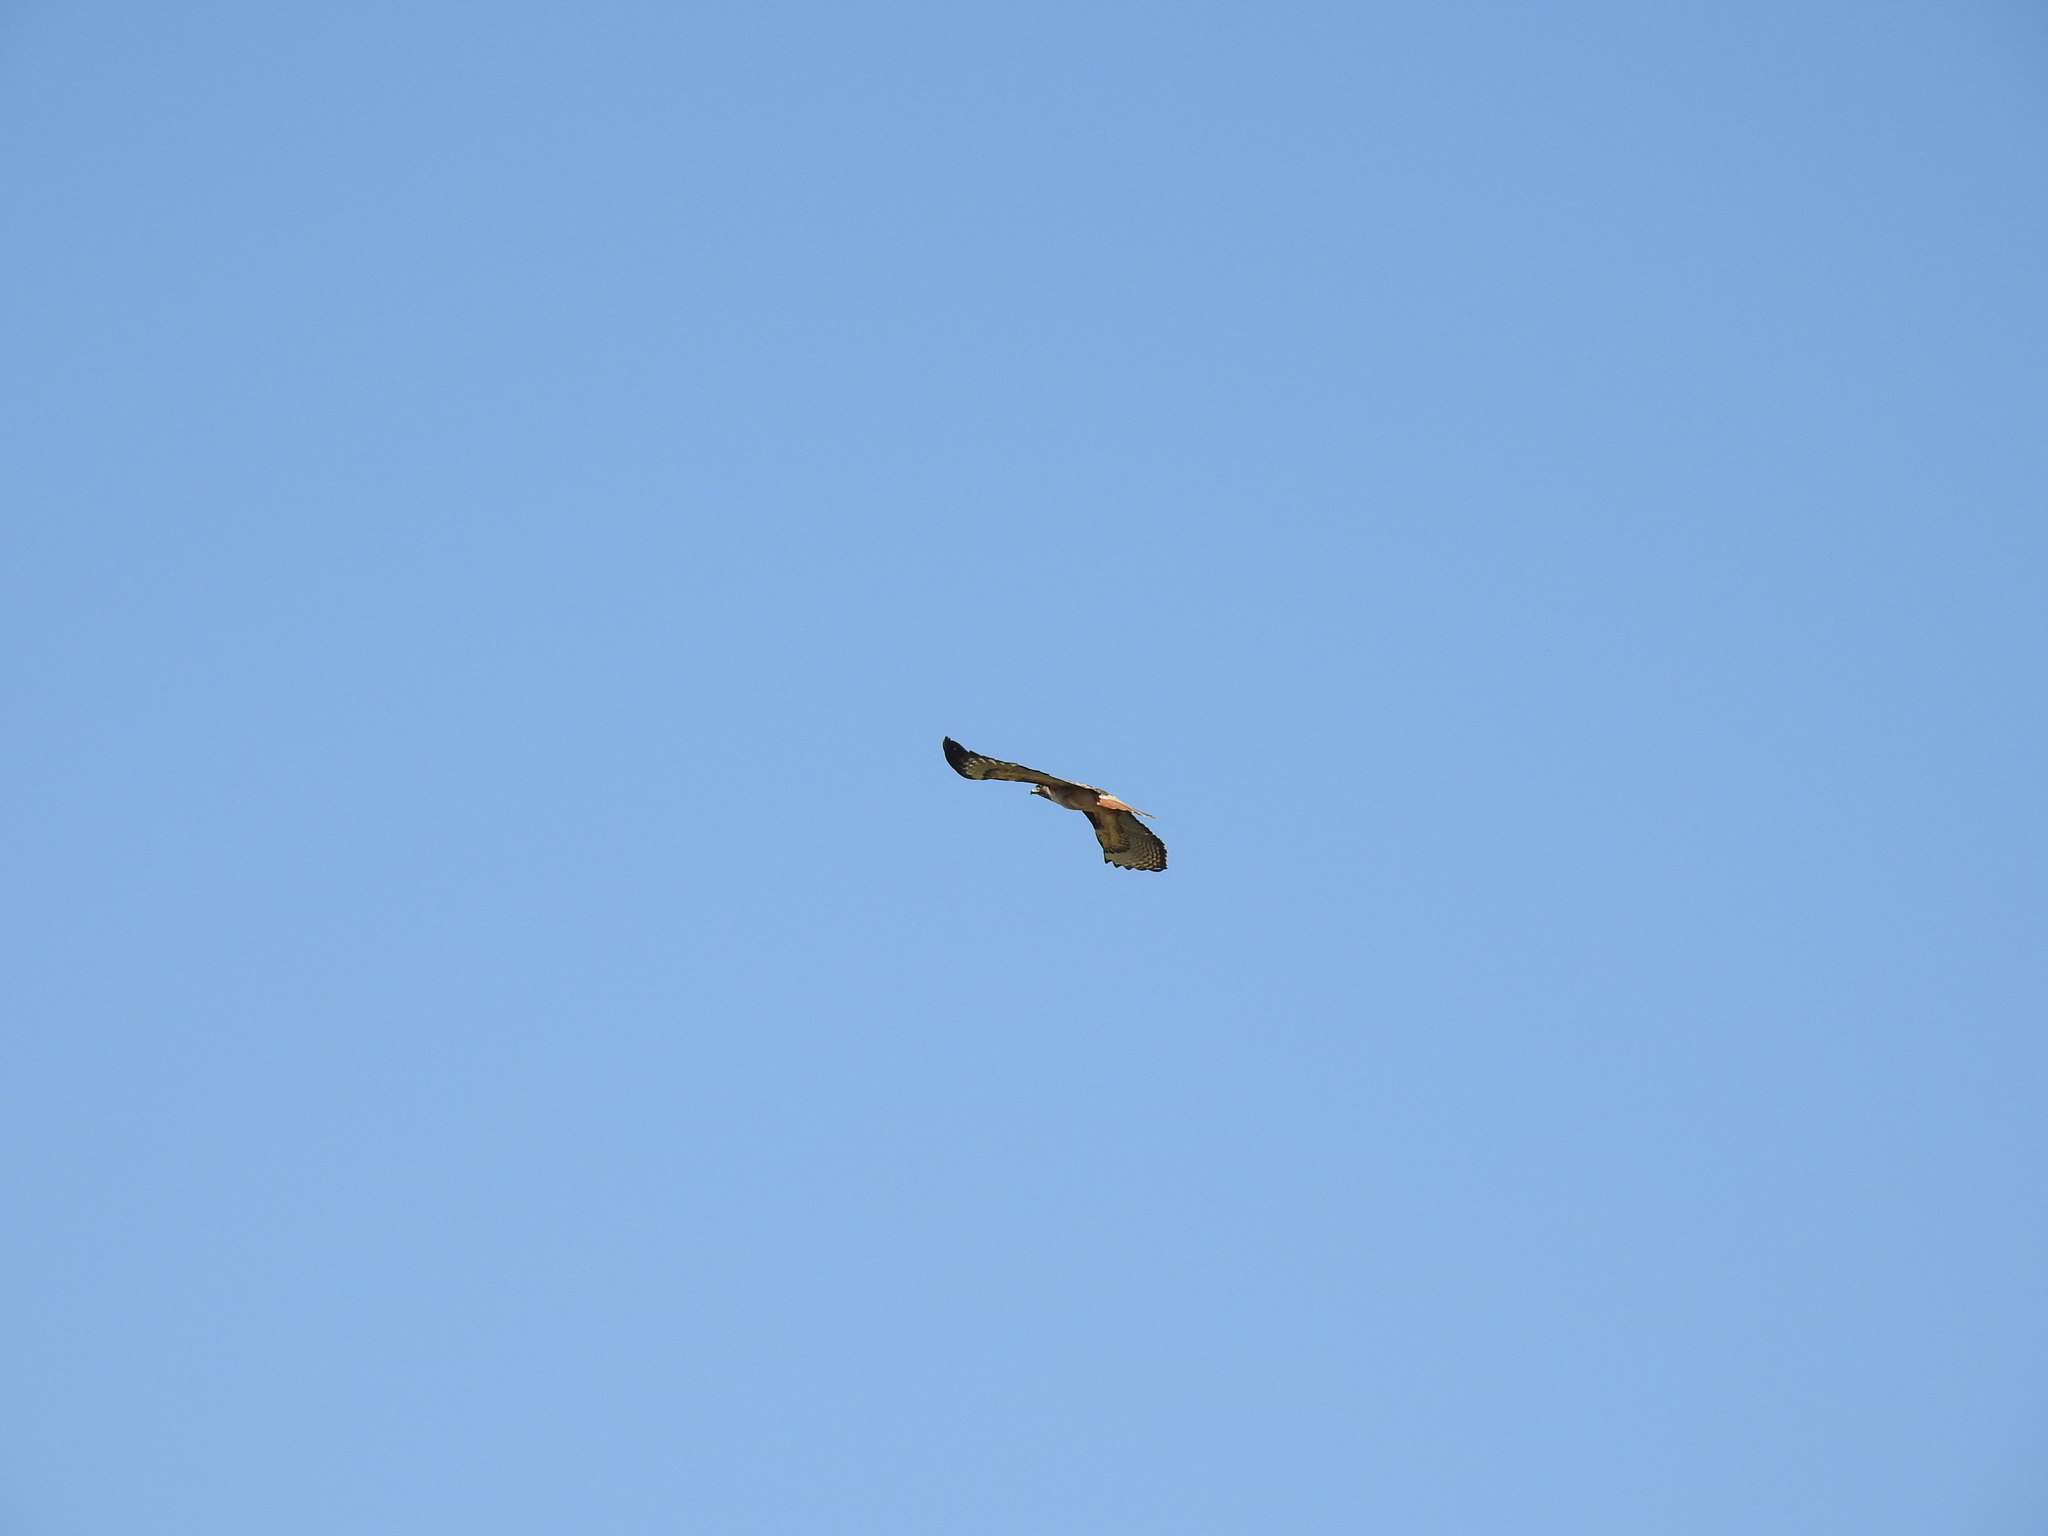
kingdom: Animalia
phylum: Chordata
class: Aves
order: Accipitriformes
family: Accipitridae
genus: Buteo
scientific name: Buteo jamaicensis
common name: Red-tailed hawk
